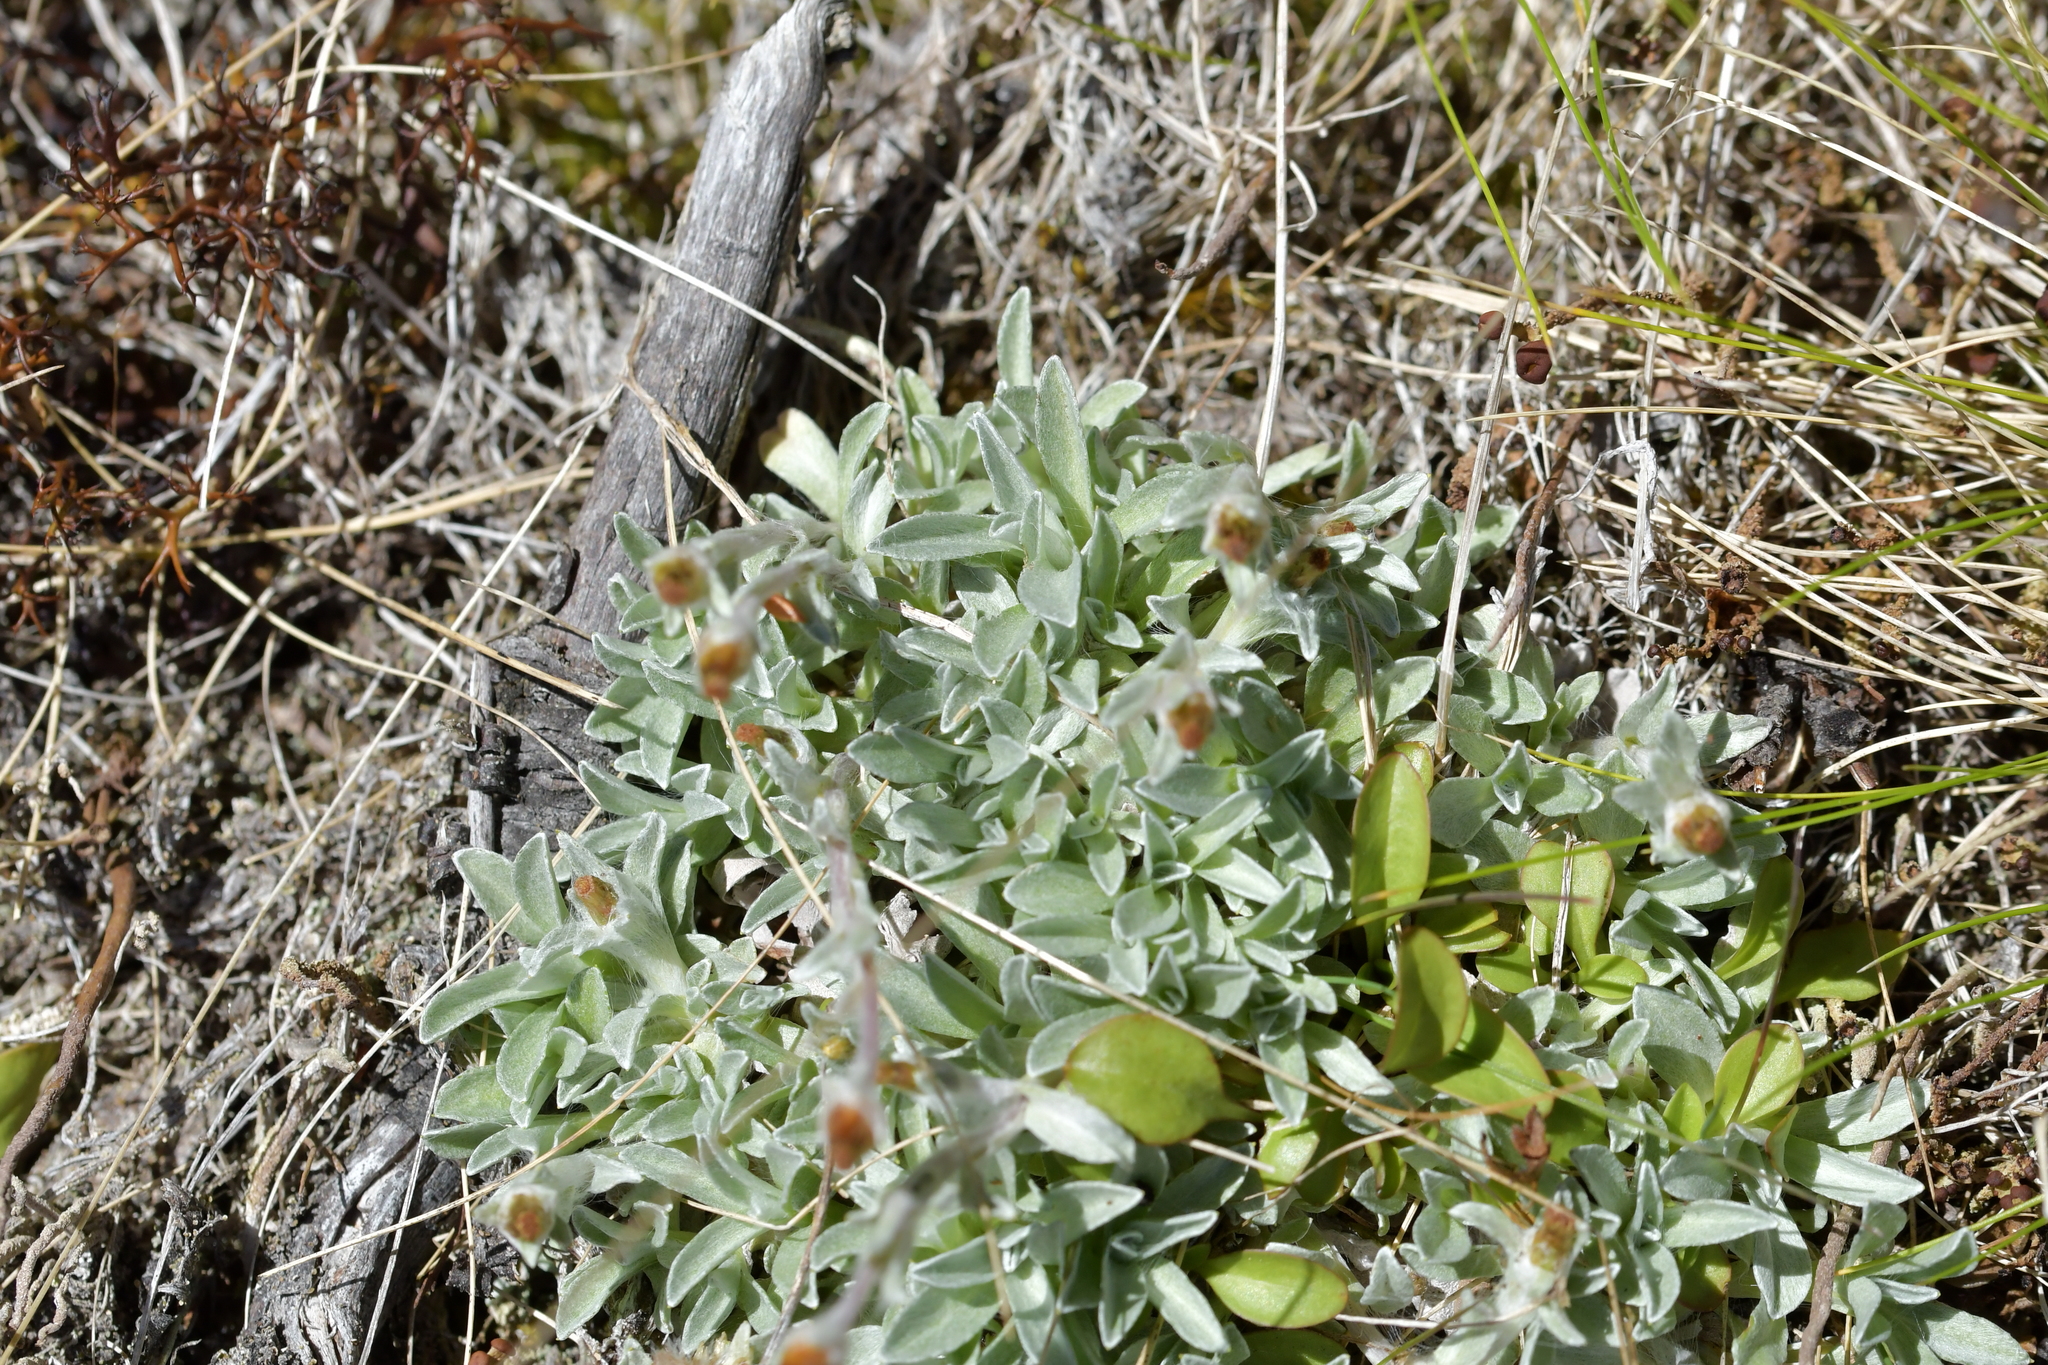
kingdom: Plantae
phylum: Tracheophyta
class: Magnoliopsida
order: Asterales
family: Asteraceae
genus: Argyrotegium
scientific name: Argyrotegium mackayi
